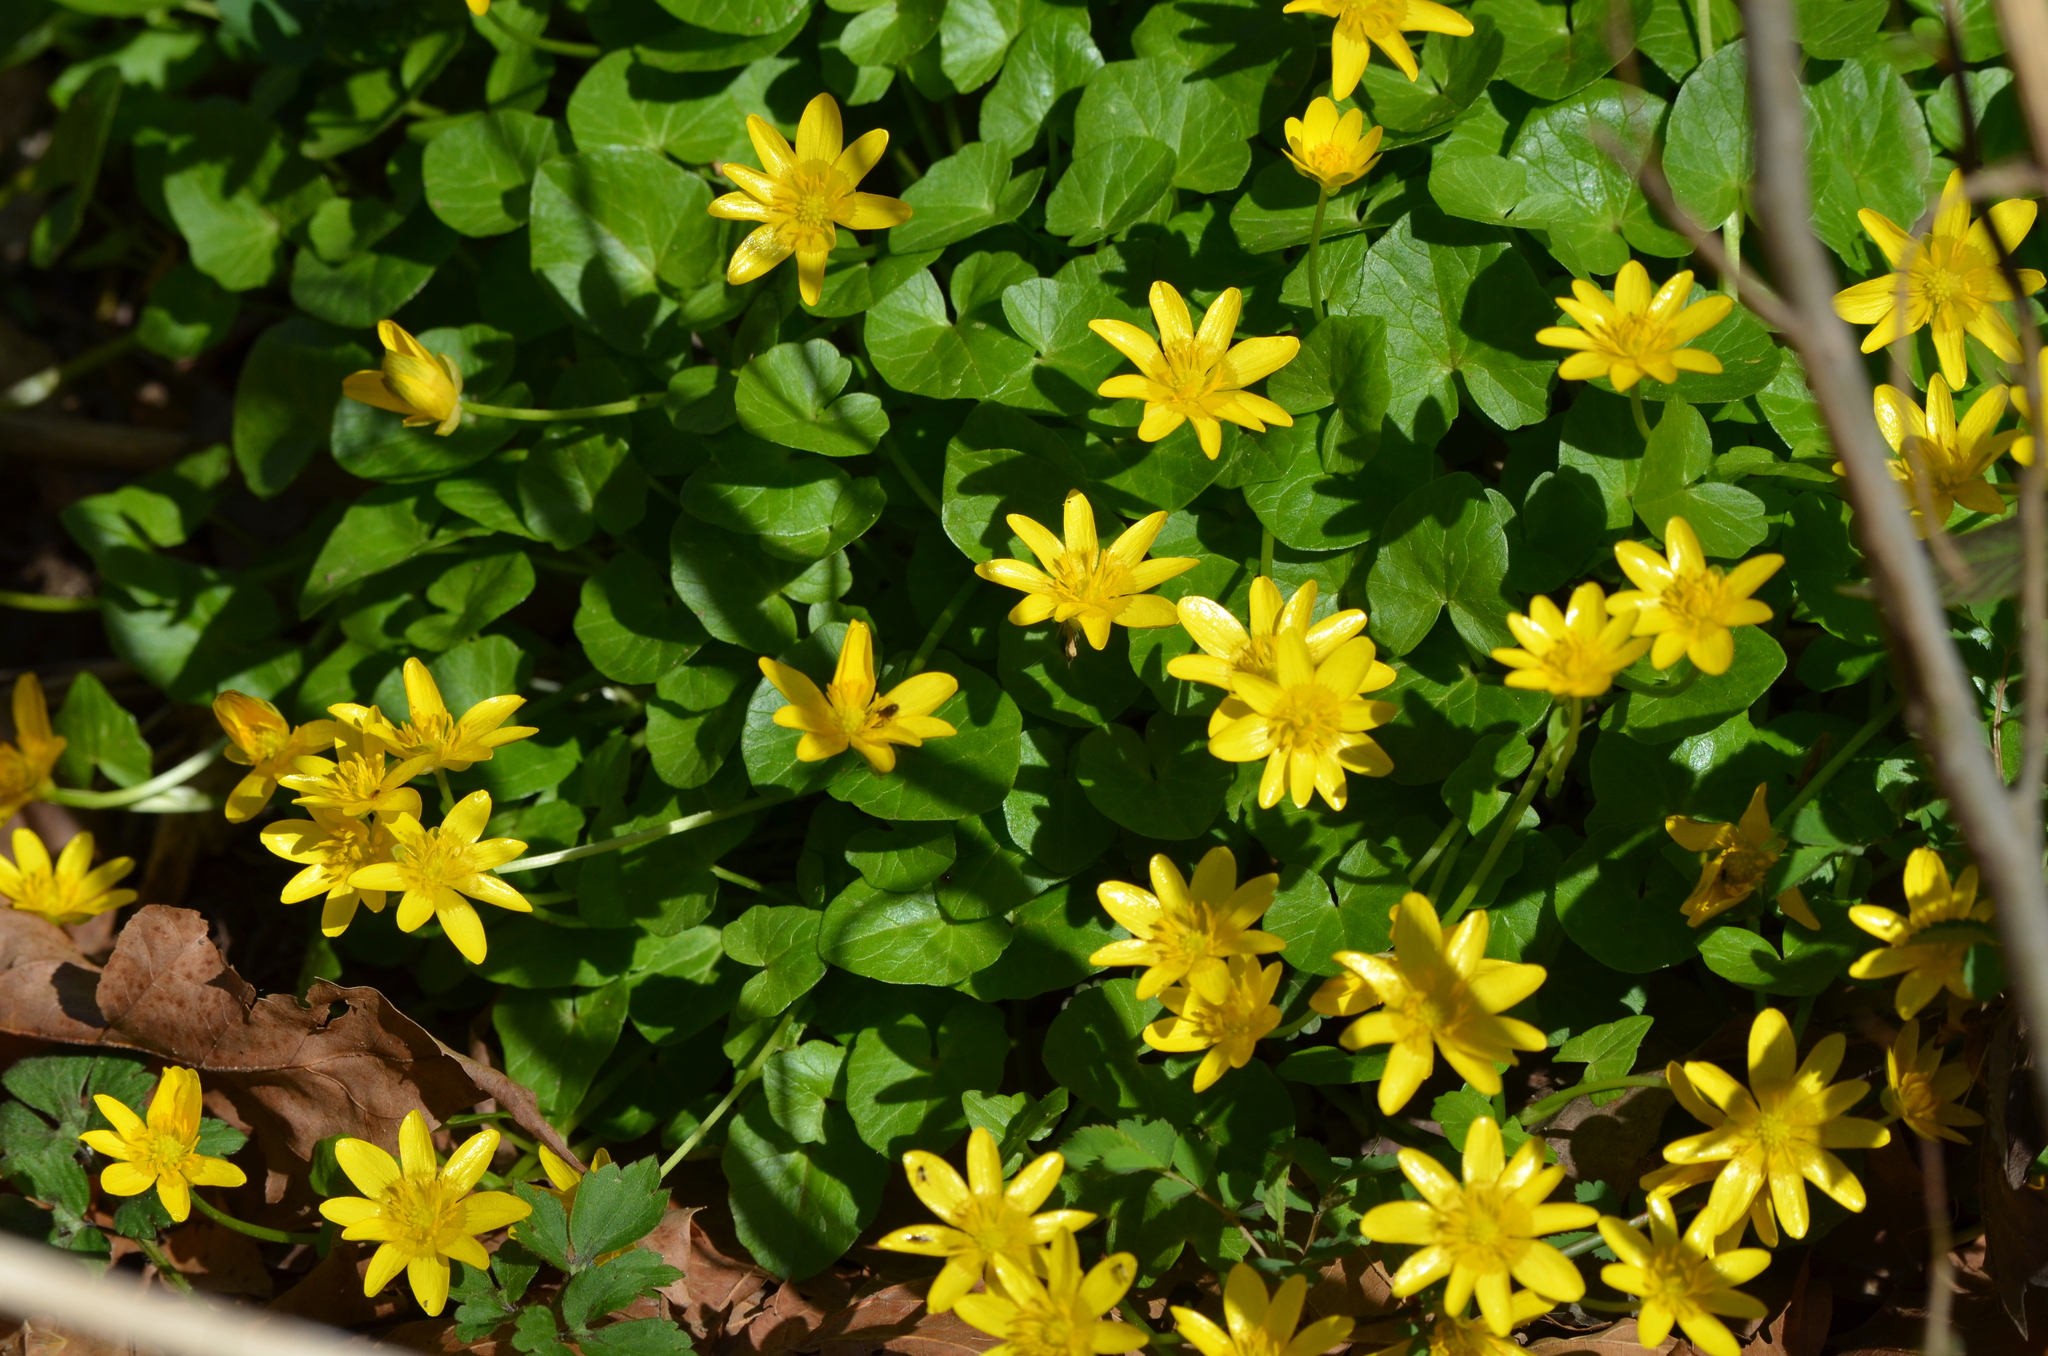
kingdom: Plantae
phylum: Tracheophyta
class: Magnoliopsida
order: Ranunculales
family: Ranunculaceae
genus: Ficaria
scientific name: Ficaria verna
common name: Lesser celandine
